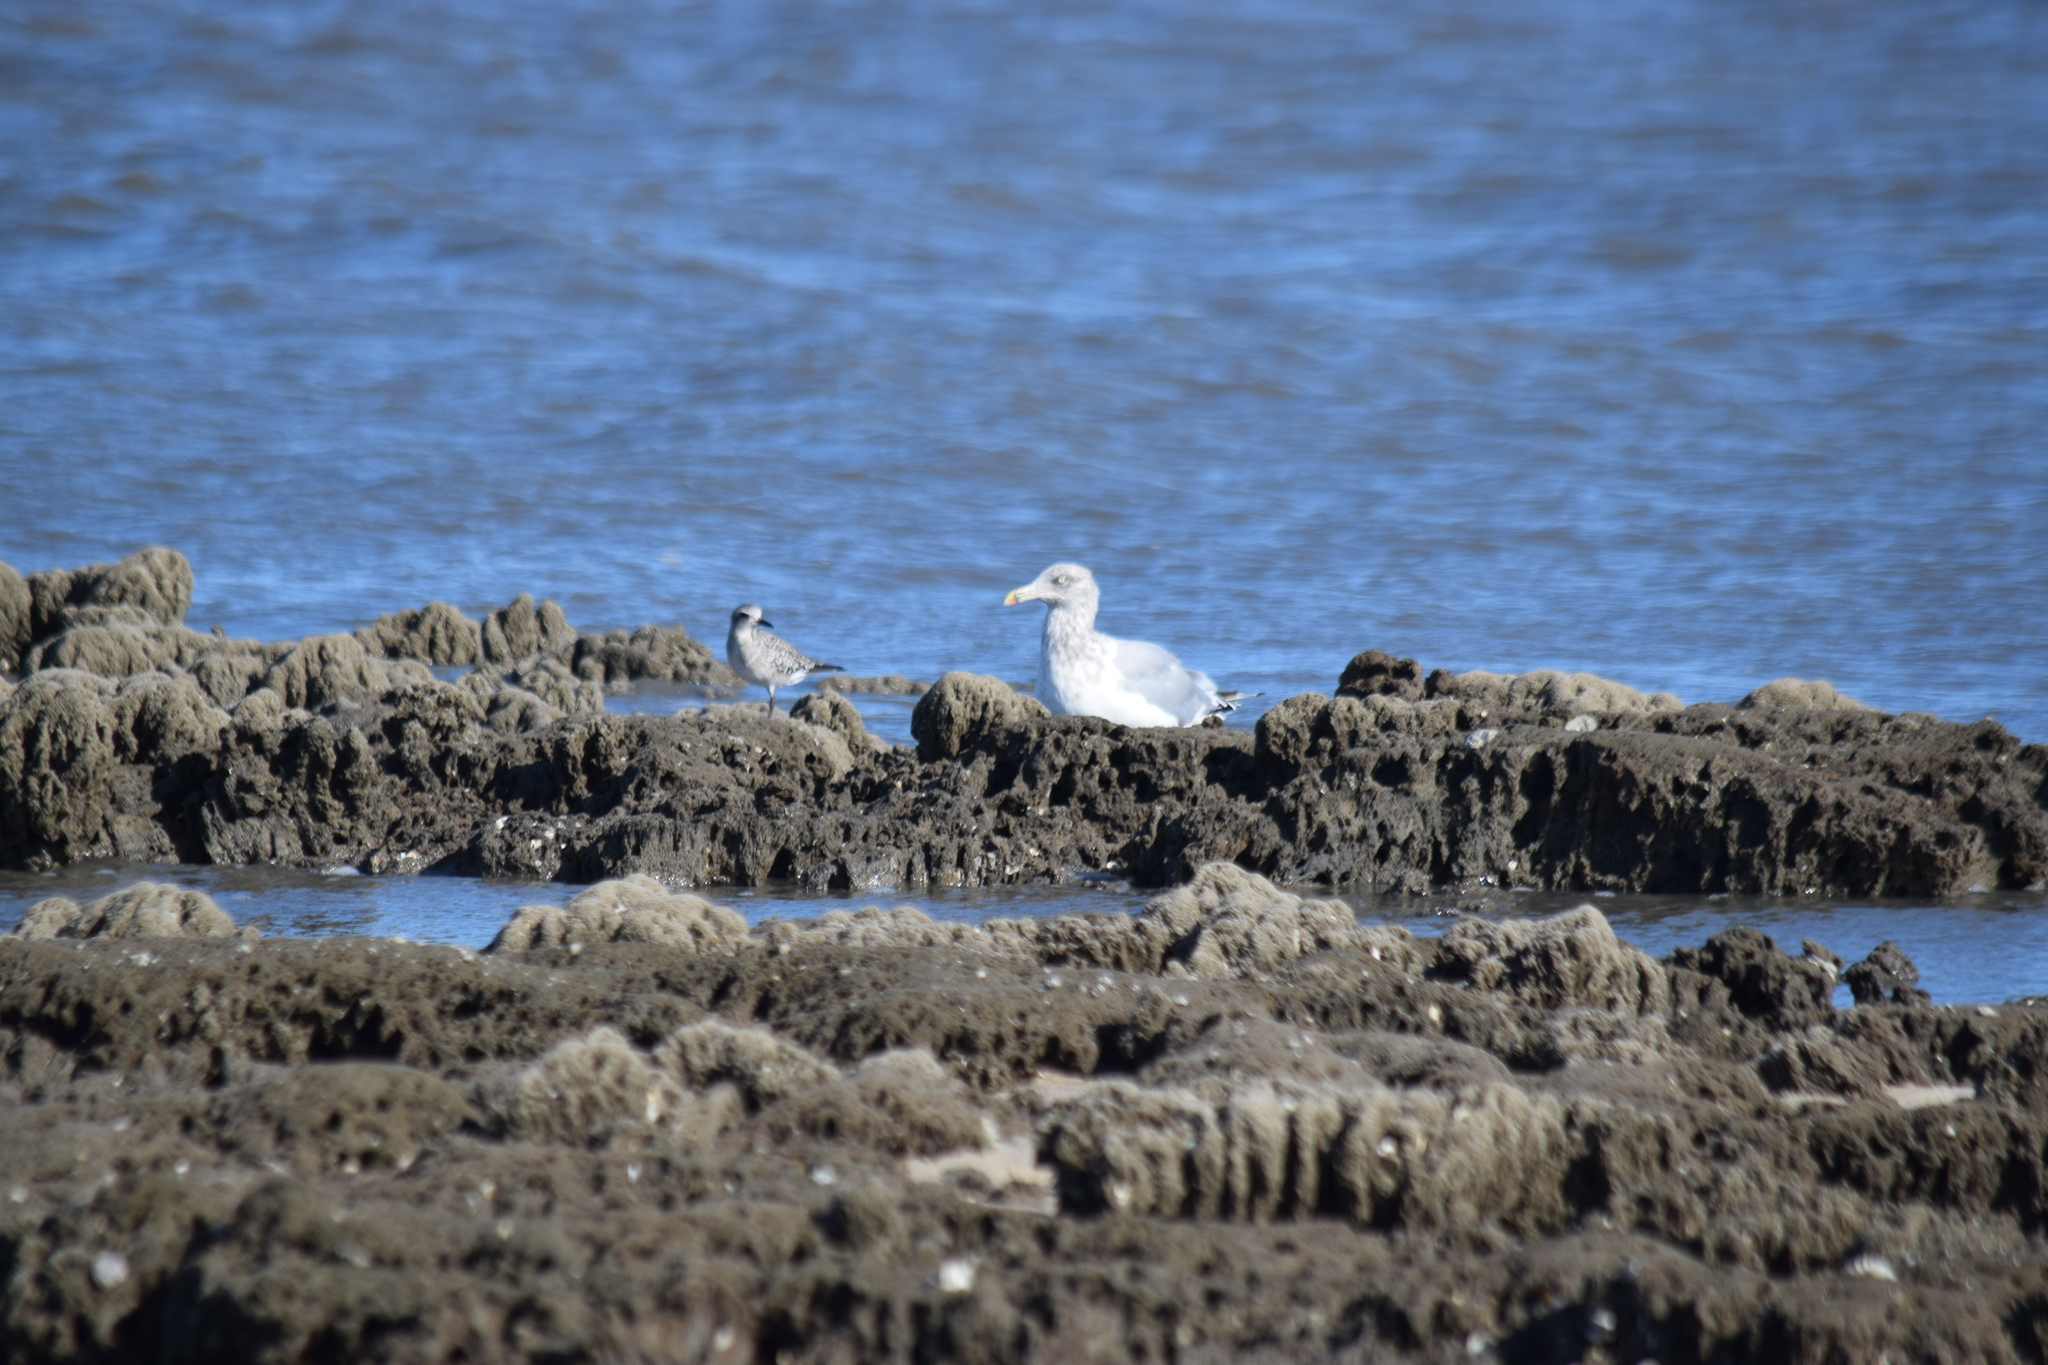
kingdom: Animalia
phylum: Chordata
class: Aves
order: Charadriiformes
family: Laridae
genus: Larus
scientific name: Larus argentatus
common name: Herring gull
